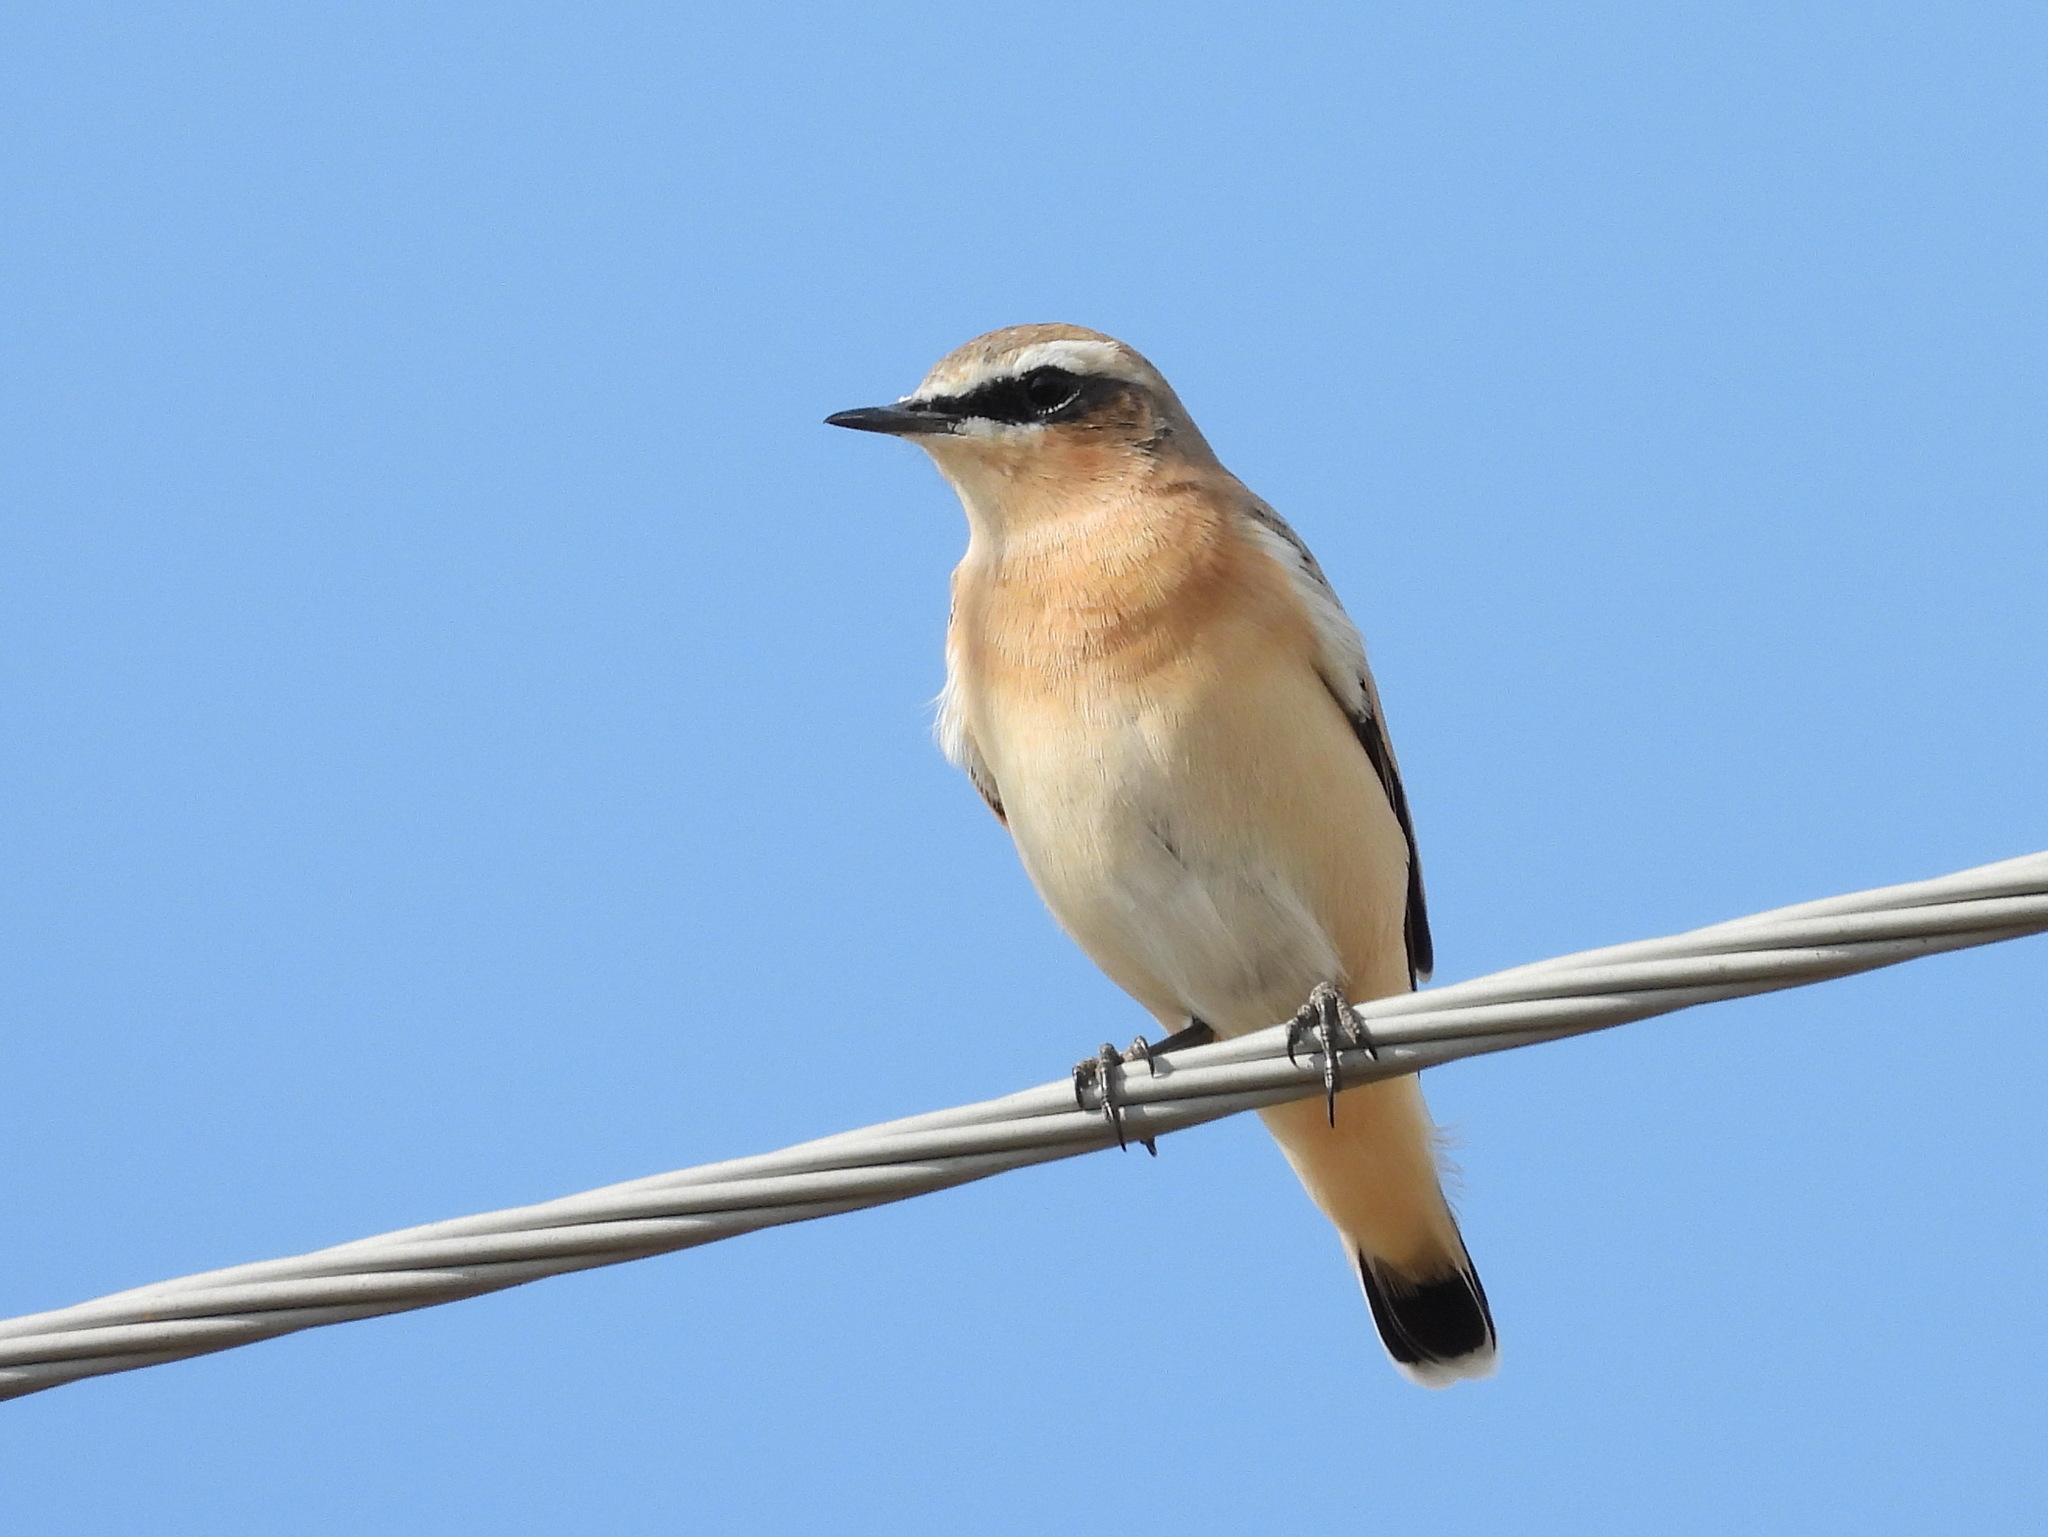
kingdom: Animalia
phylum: Chordata
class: Aves
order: Passeriformes
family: Muscicapidae
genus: Oenanthe
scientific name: Oenanthe oenanthe
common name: Northern wheatear
